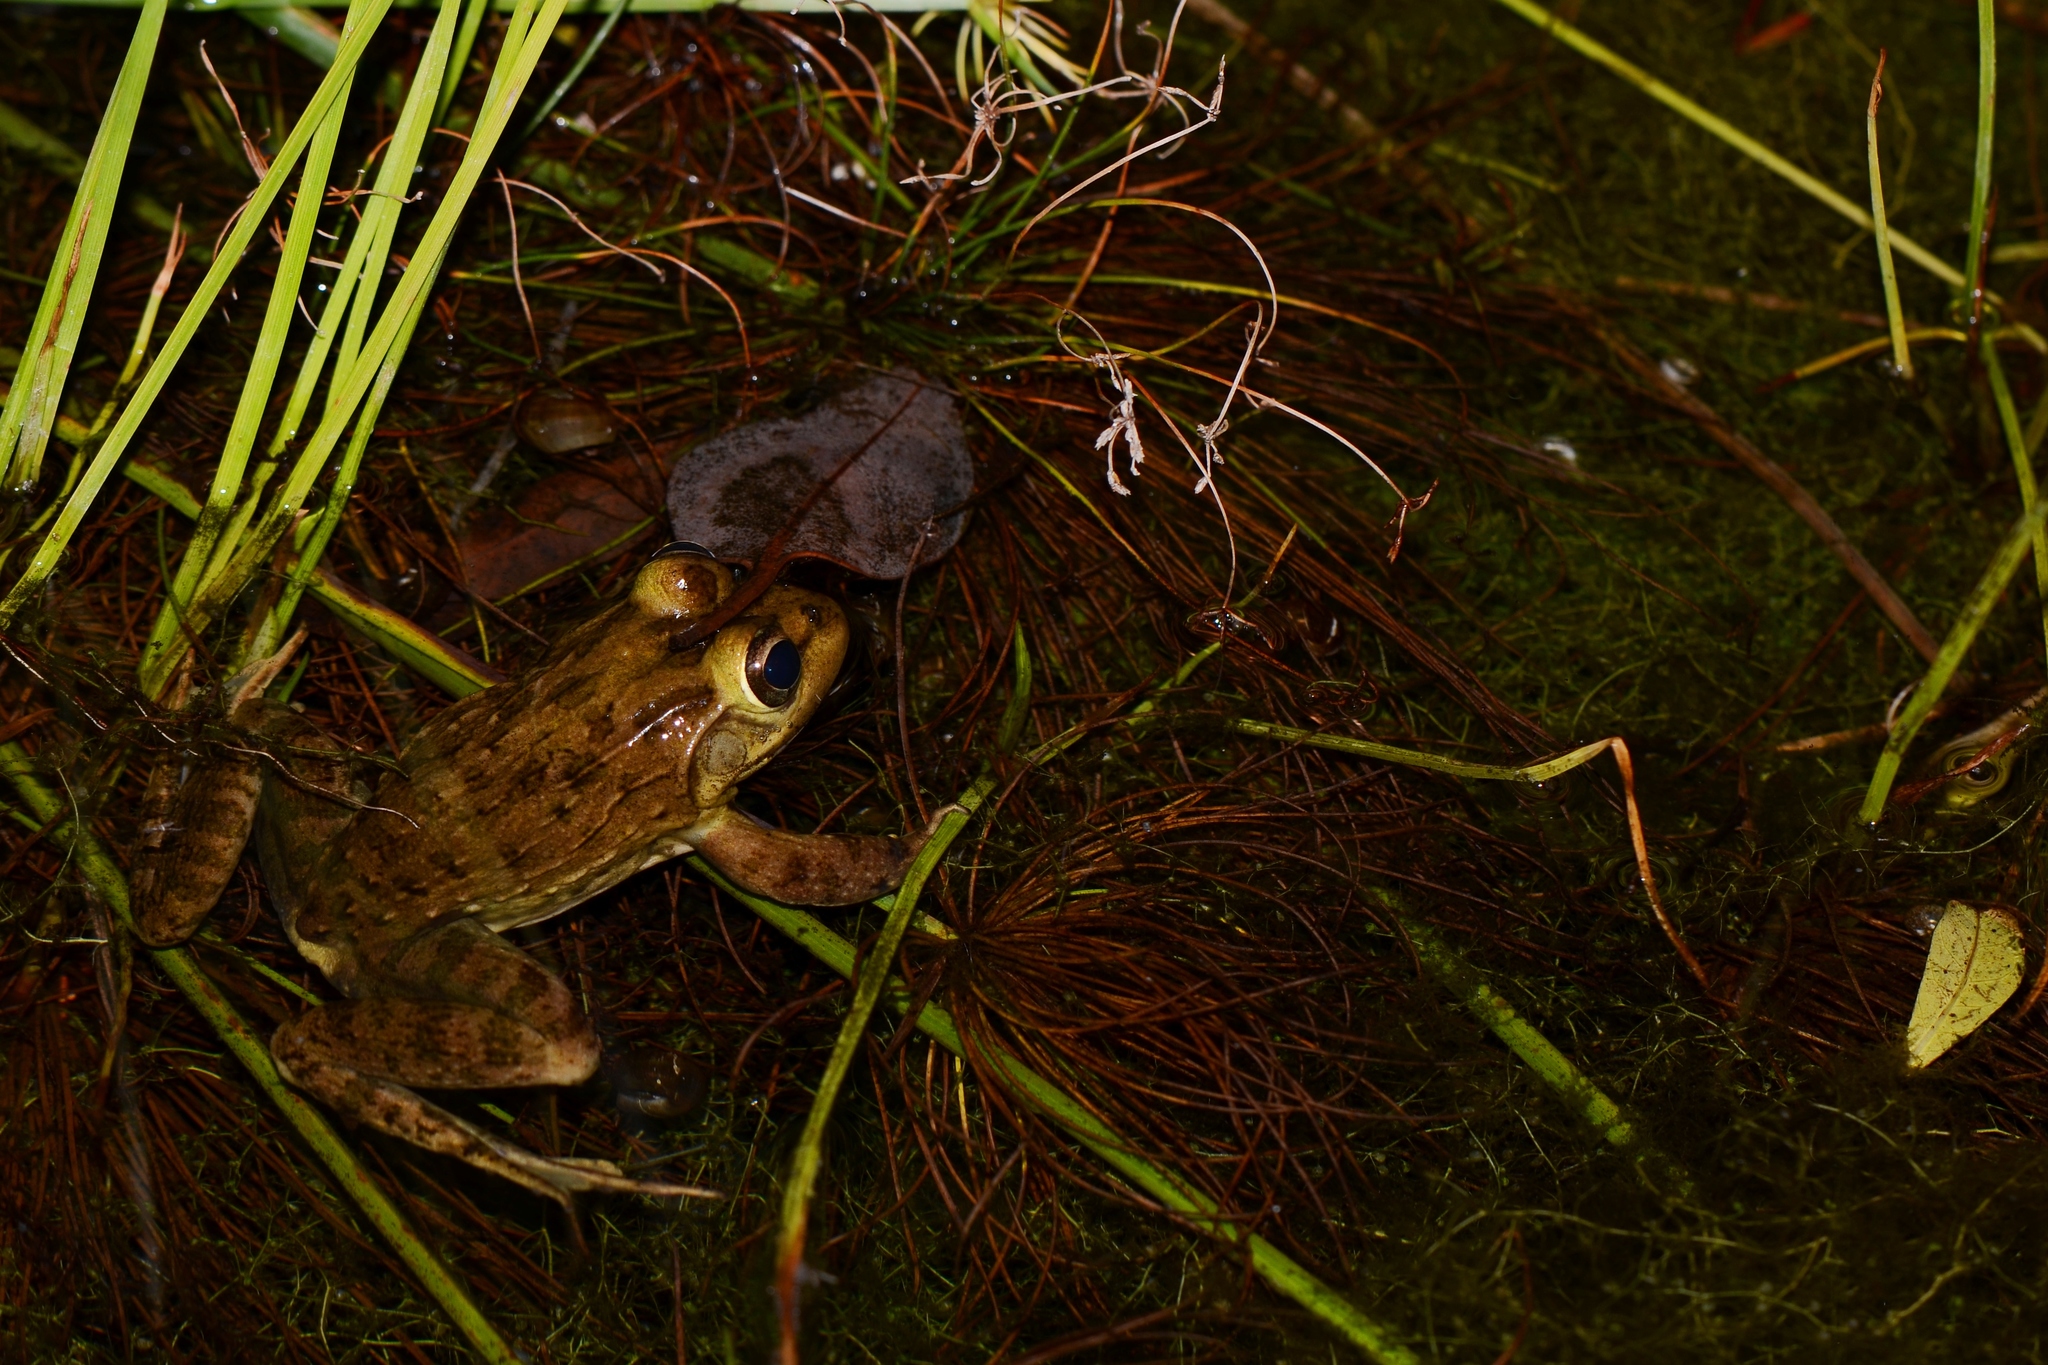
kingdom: Animalia
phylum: Chordata
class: Amphibia
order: Anura
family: Pyxicephalidae
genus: Amietia
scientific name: Amietia fuscigula
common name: Cape rana
